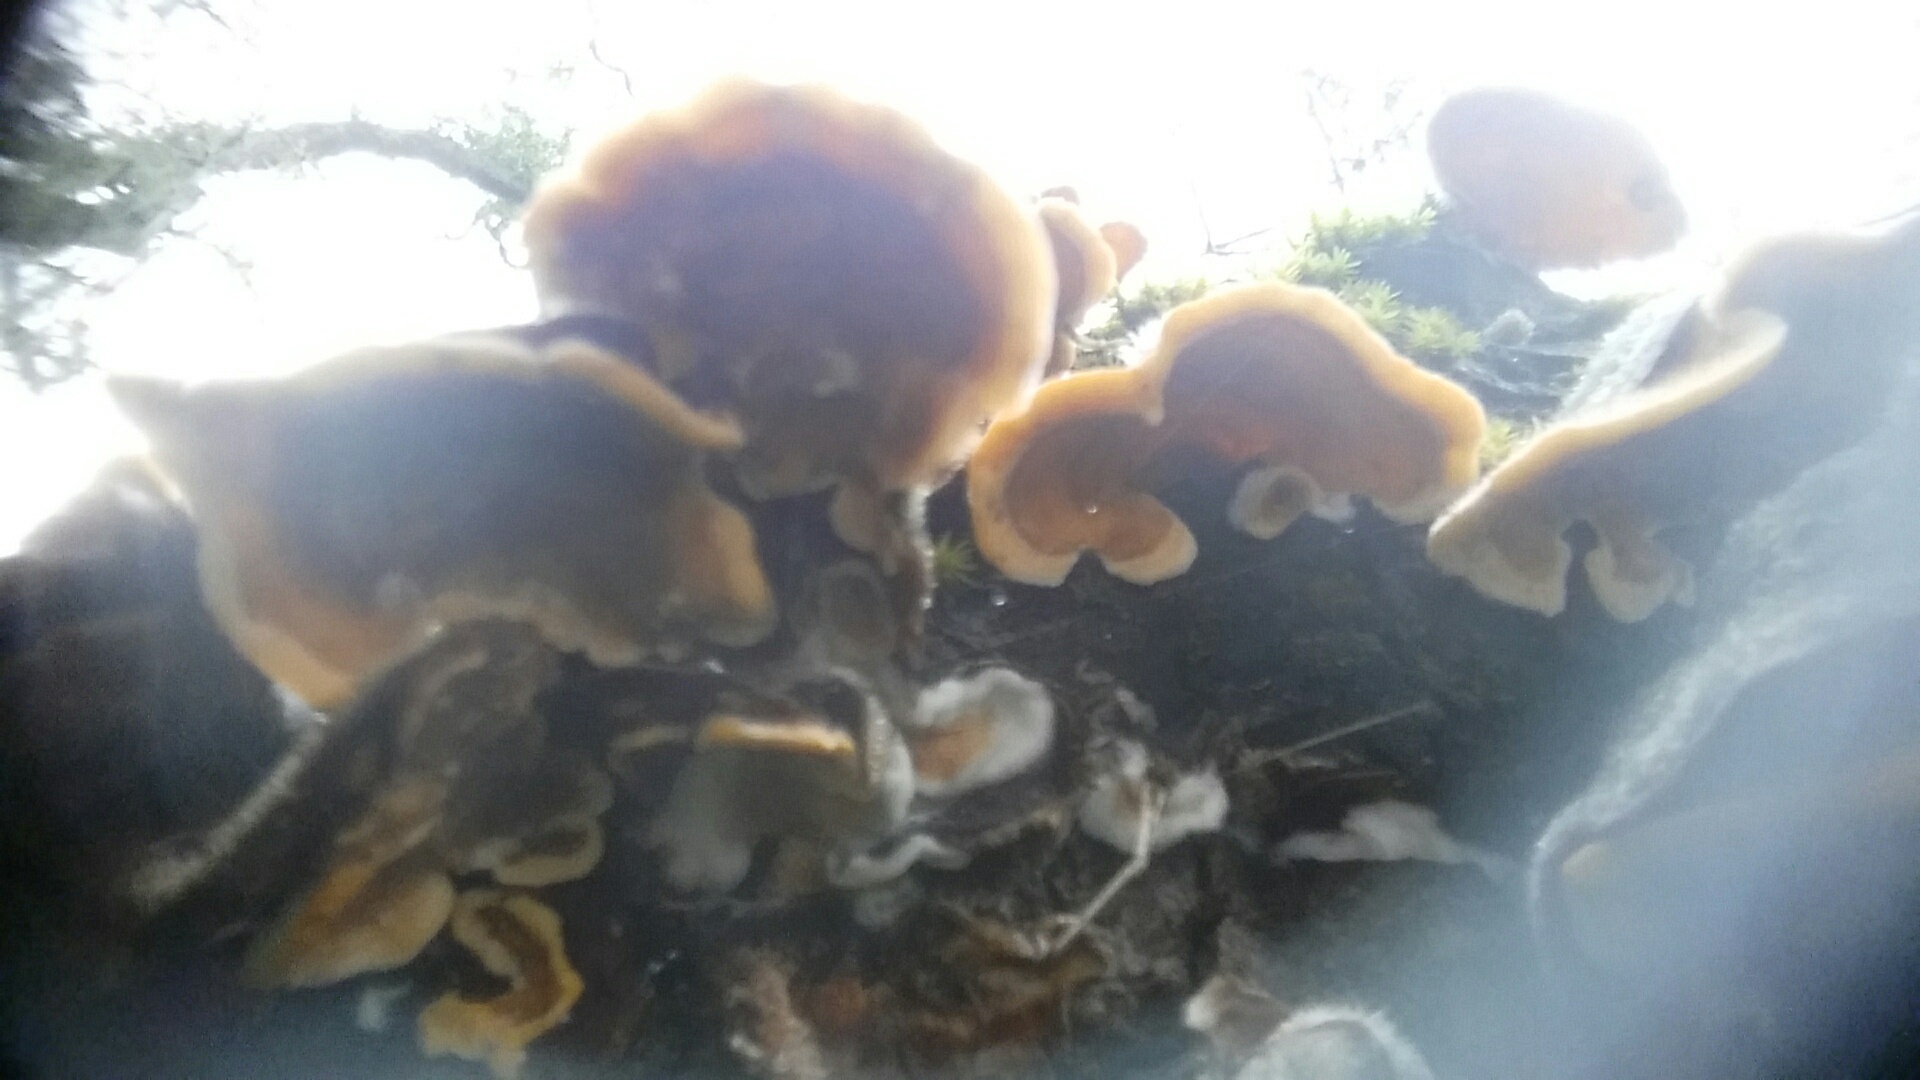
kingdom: Fungi
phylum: Basidiomycota
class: Agaricomycetes
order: Russulales
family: Stereaceae
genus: Stereum
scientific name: Stereum hirsutum
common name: Hairy curtain crust
